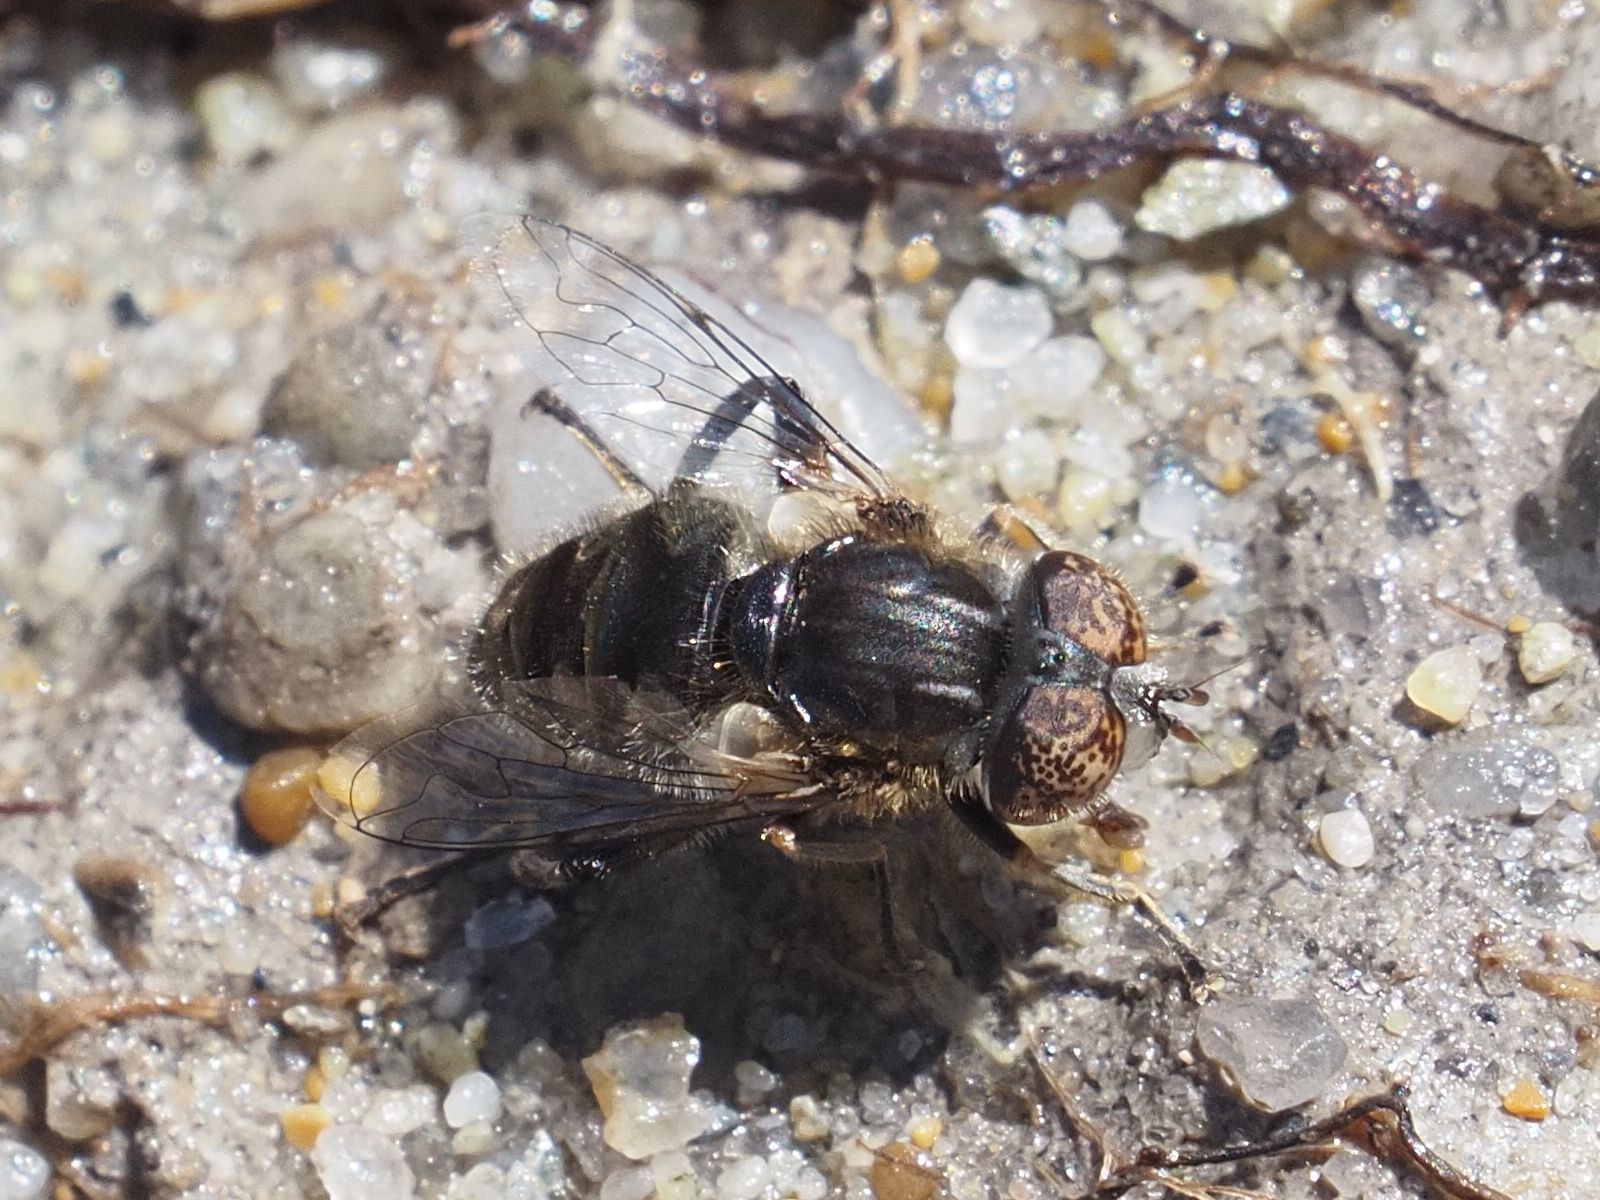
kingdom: Animalia
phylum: Arthropoda
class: Insecta
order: Diptera
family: Syrphidae
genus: Eristalinus
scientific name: Eristalinus sepulchralis
